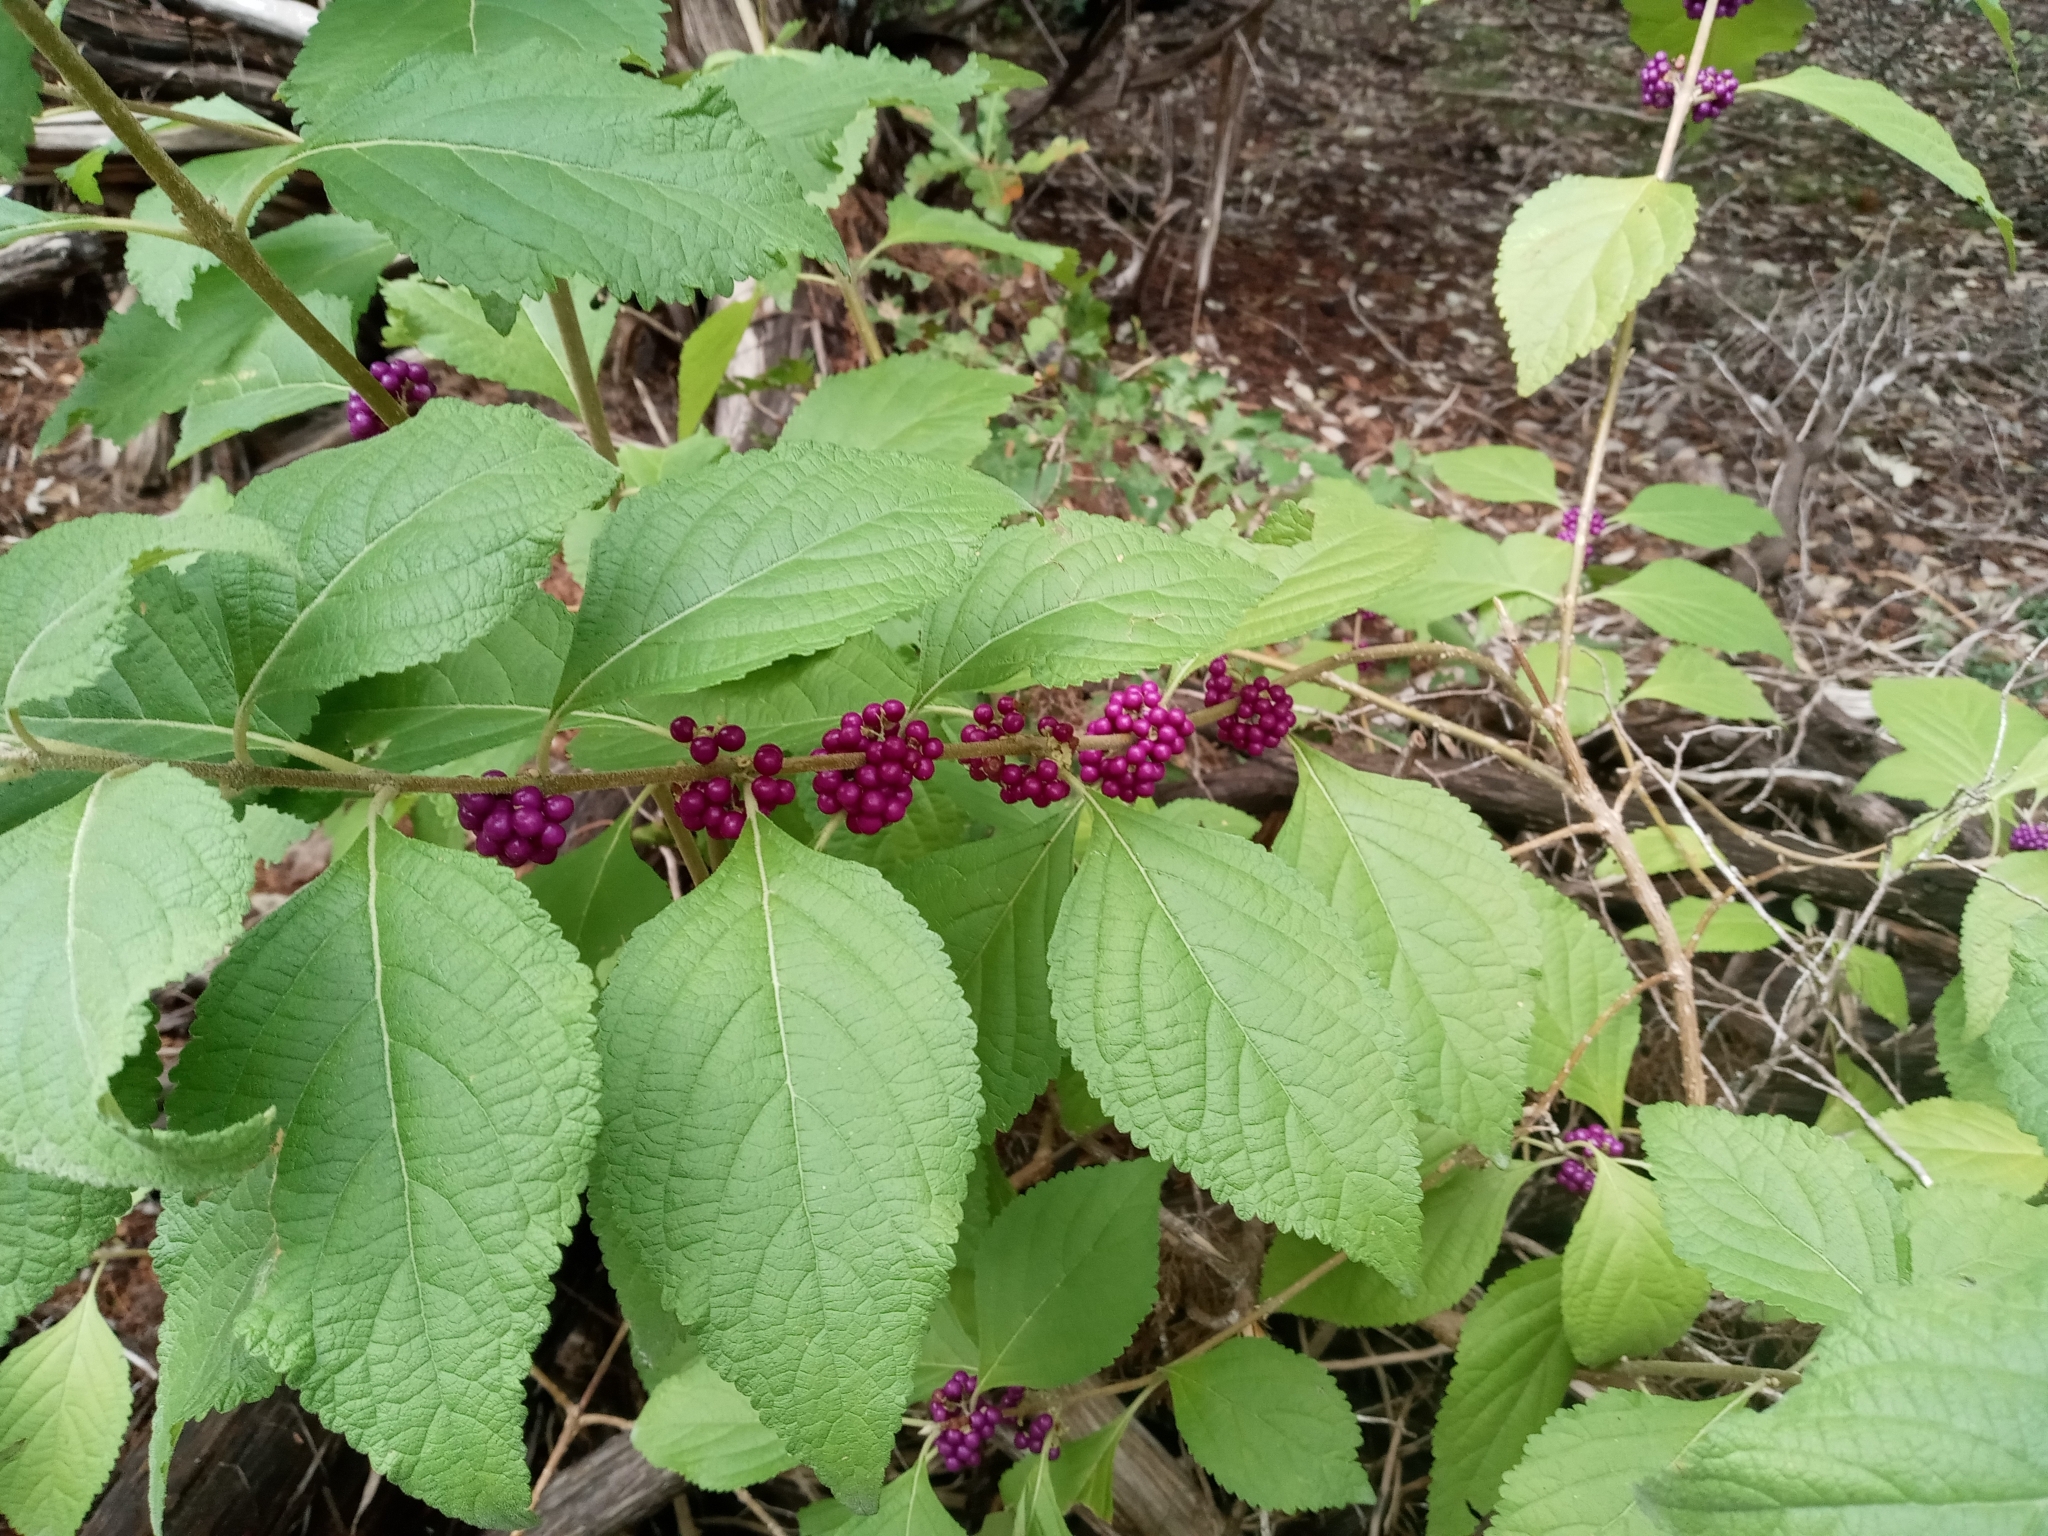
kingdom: Plantae
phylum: Tracheophyta
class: Magnoliopsida
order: Lamiales
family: Lamiaceae
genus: Callicarpa
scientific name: Callicarpa americana
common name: American beautyberry
